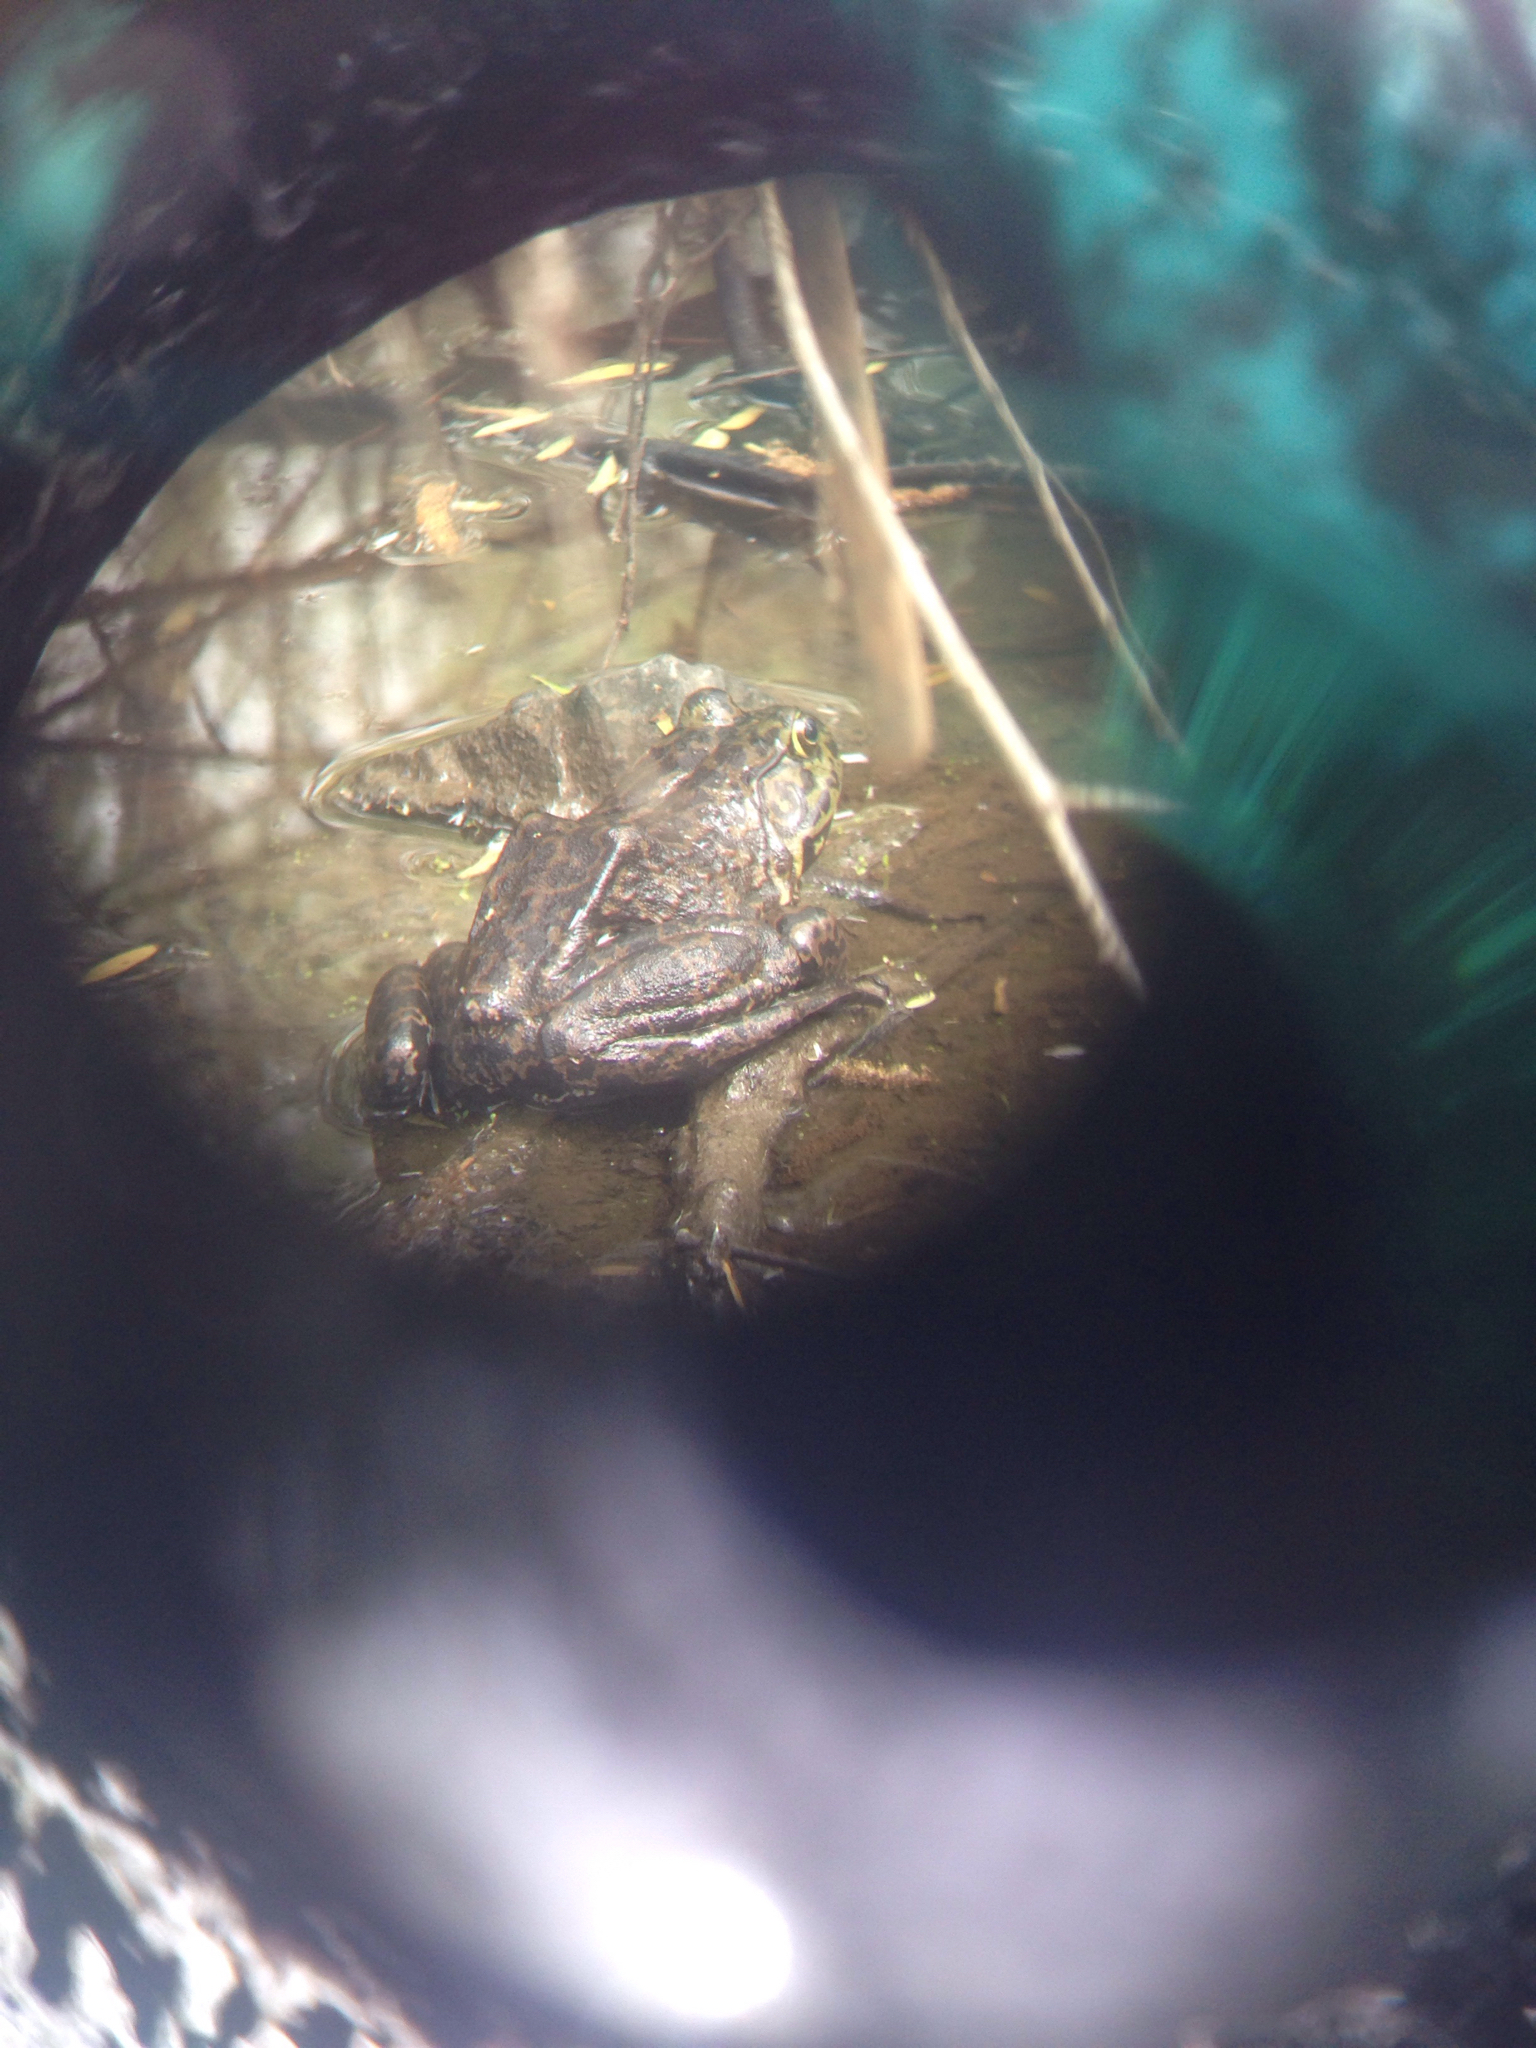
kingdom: Animalia
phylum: Chordata
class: Amphibia
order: Anura
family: Ranidae
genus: Lithobates
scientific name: Lithobates catesbeianus
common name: American bullfrog
